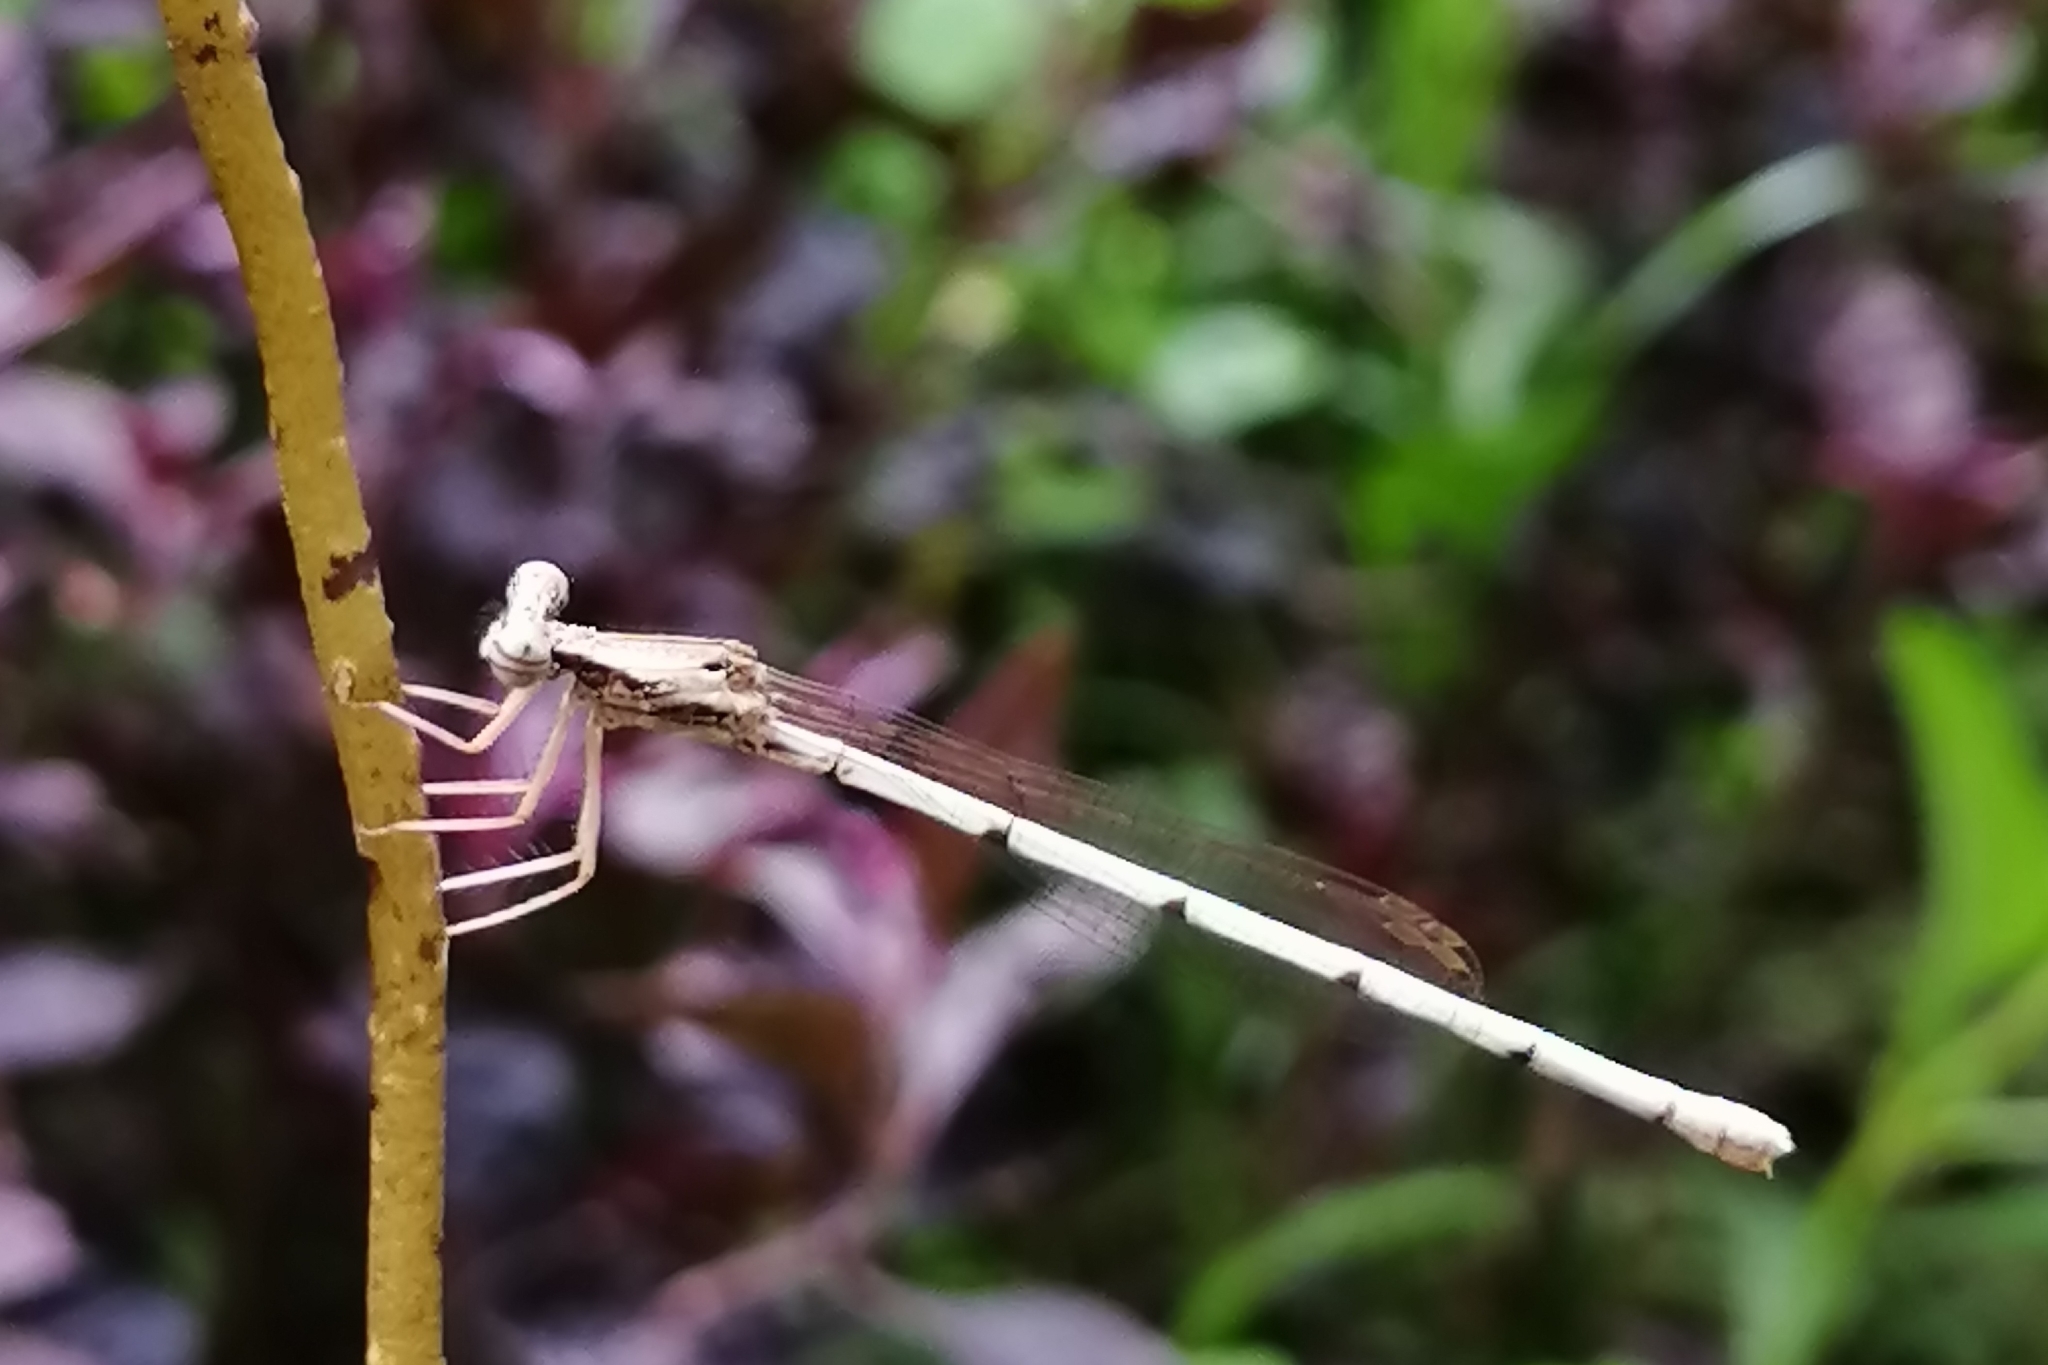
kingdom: Animalia
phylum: Arthropoda
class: Insecta
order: Odonata
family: Platycnemididae
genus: Copera
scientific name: Copera marginipes
